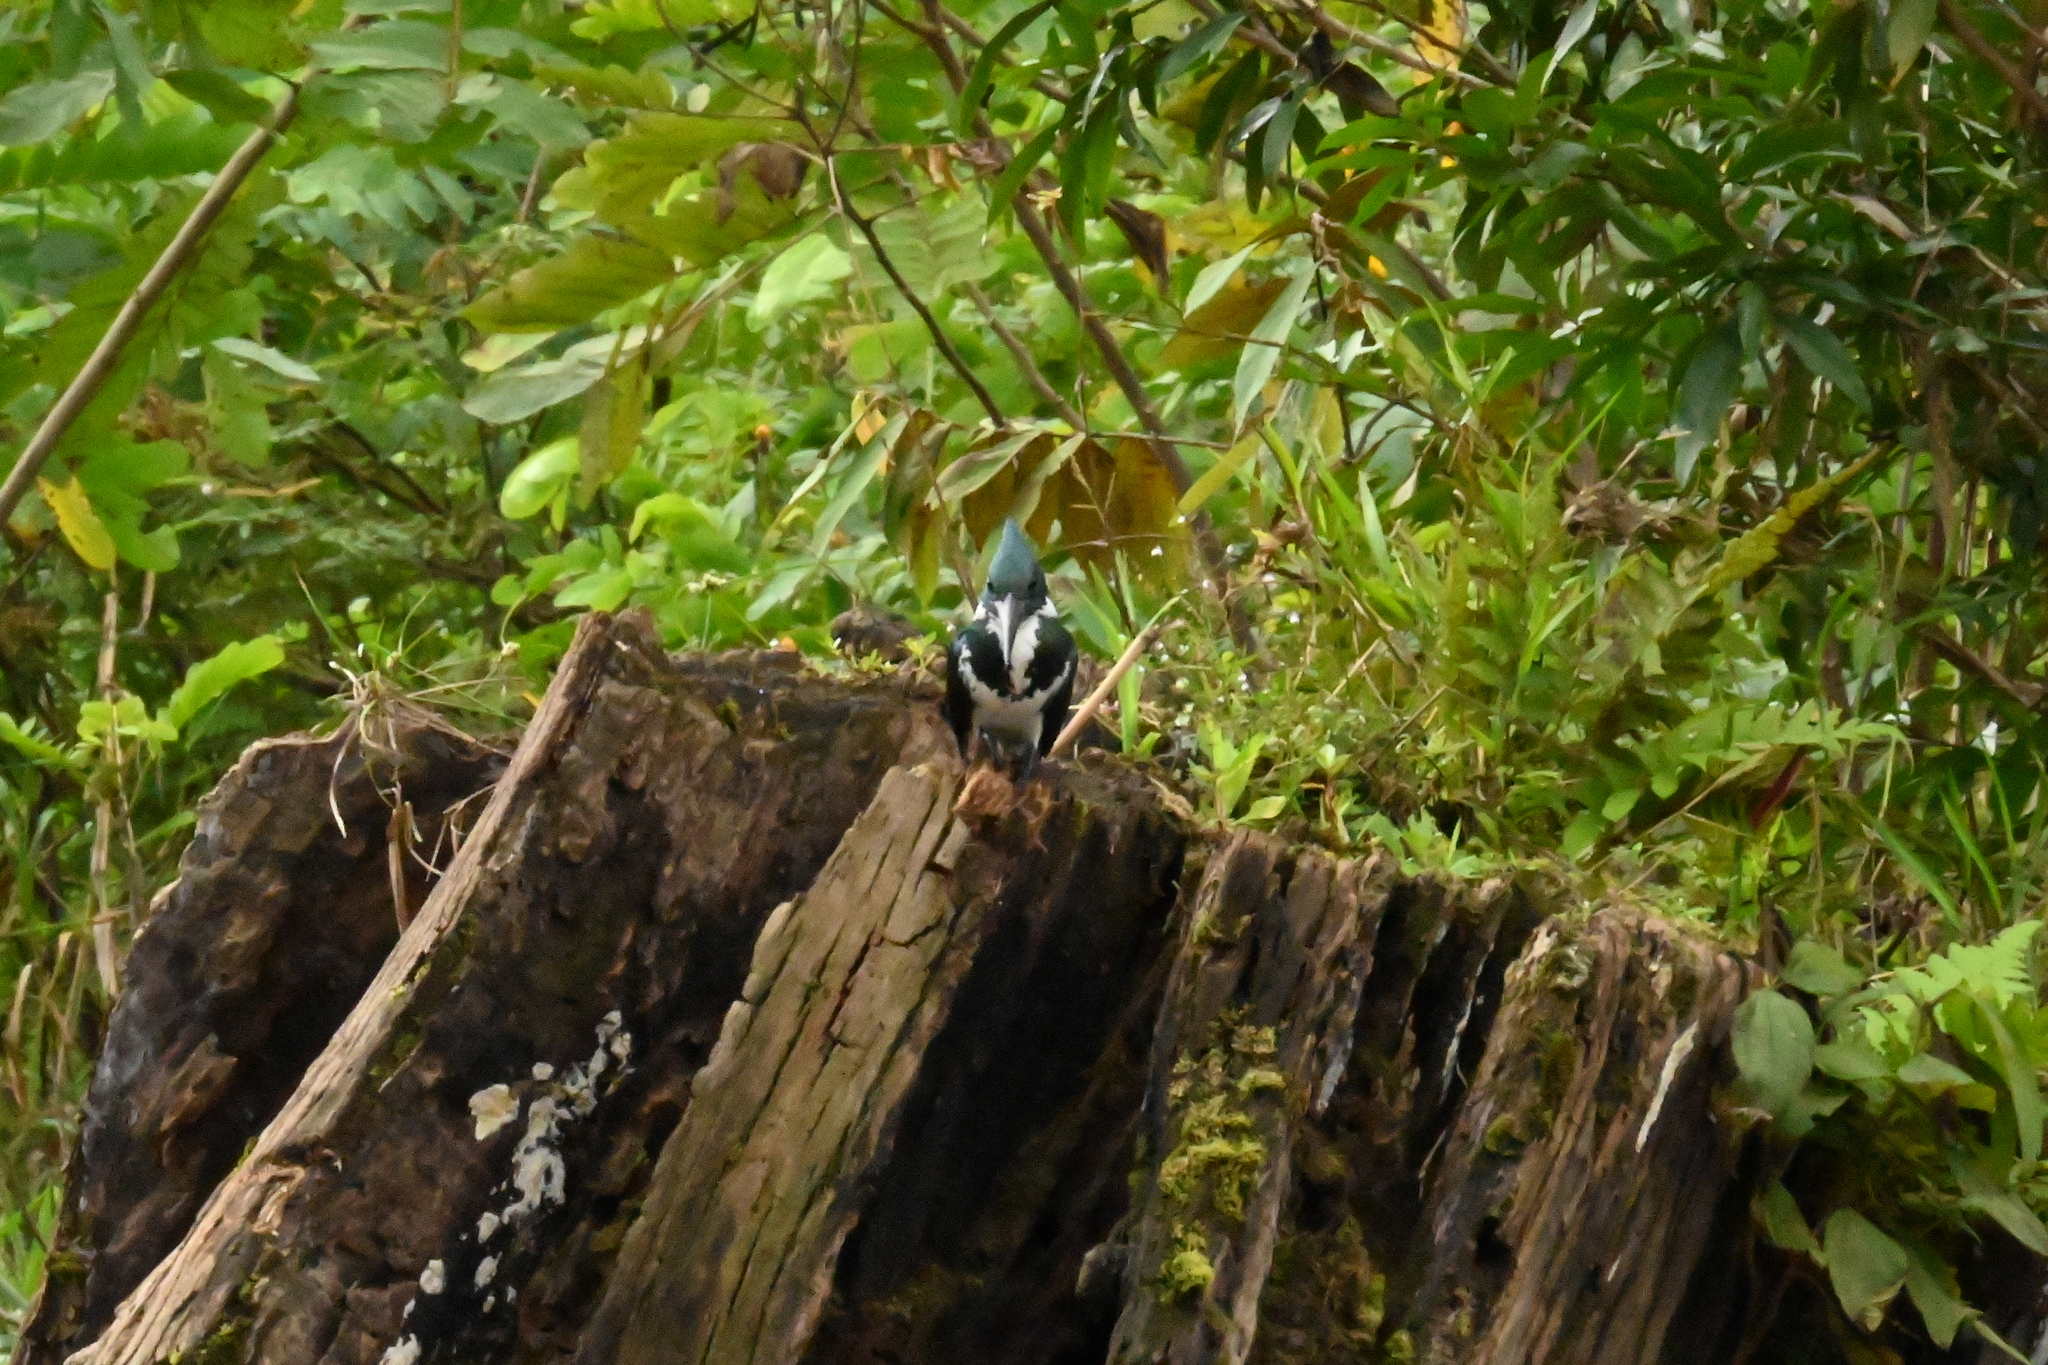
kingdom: Animalia
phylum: Chordata
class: Aves
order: Coraciiformes
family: Alcedinidae
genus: Chloroceryle
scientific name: Chloroceryle amazona
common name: Amazon kingfisher
